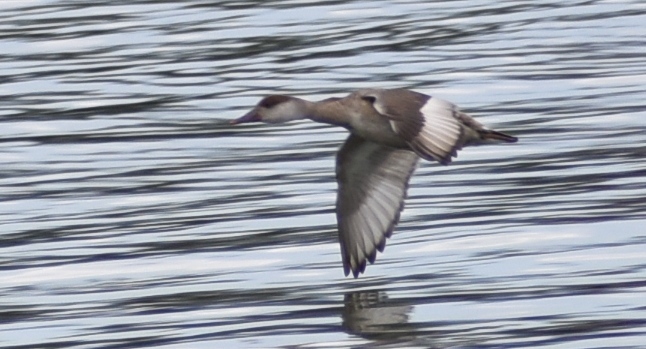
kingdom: Animalia
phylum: Chordata
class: Aves
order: Anseriformes
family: Anatidae
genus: Netta
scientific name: Netta rufina
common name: Red-crested pochard
